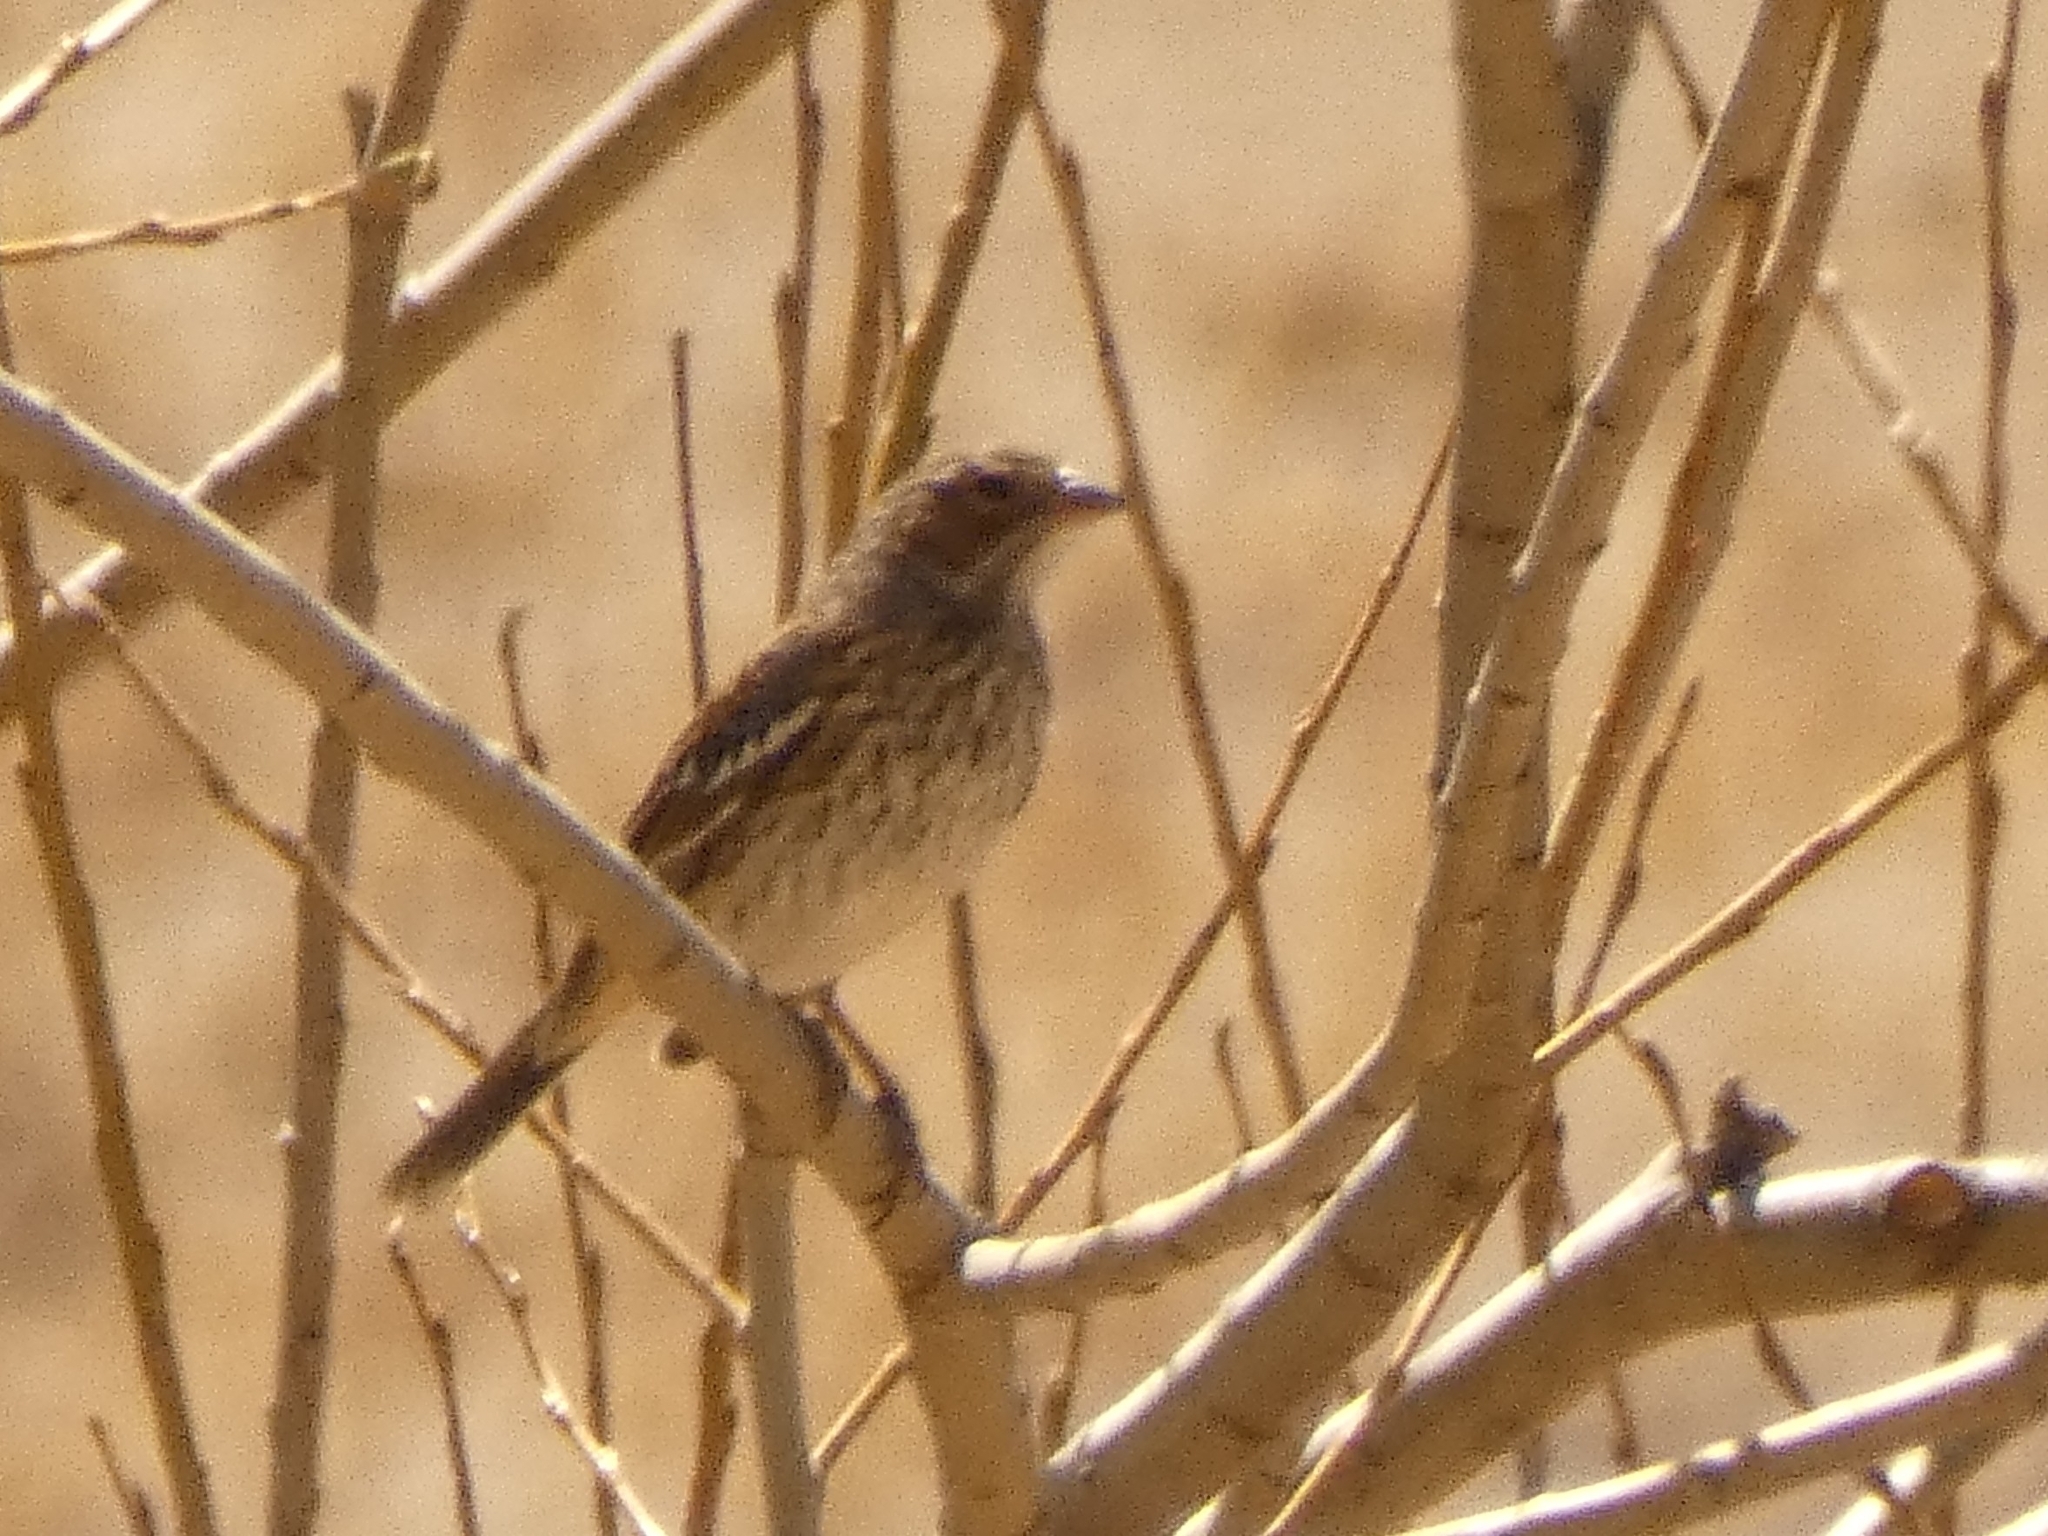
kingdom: Animalia
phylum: Chordata
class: Aves
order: Passeriformes
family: Thraupidae
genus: Rhopospina
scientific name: Rhopospina fruticeti
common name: Mourning sierra finch
